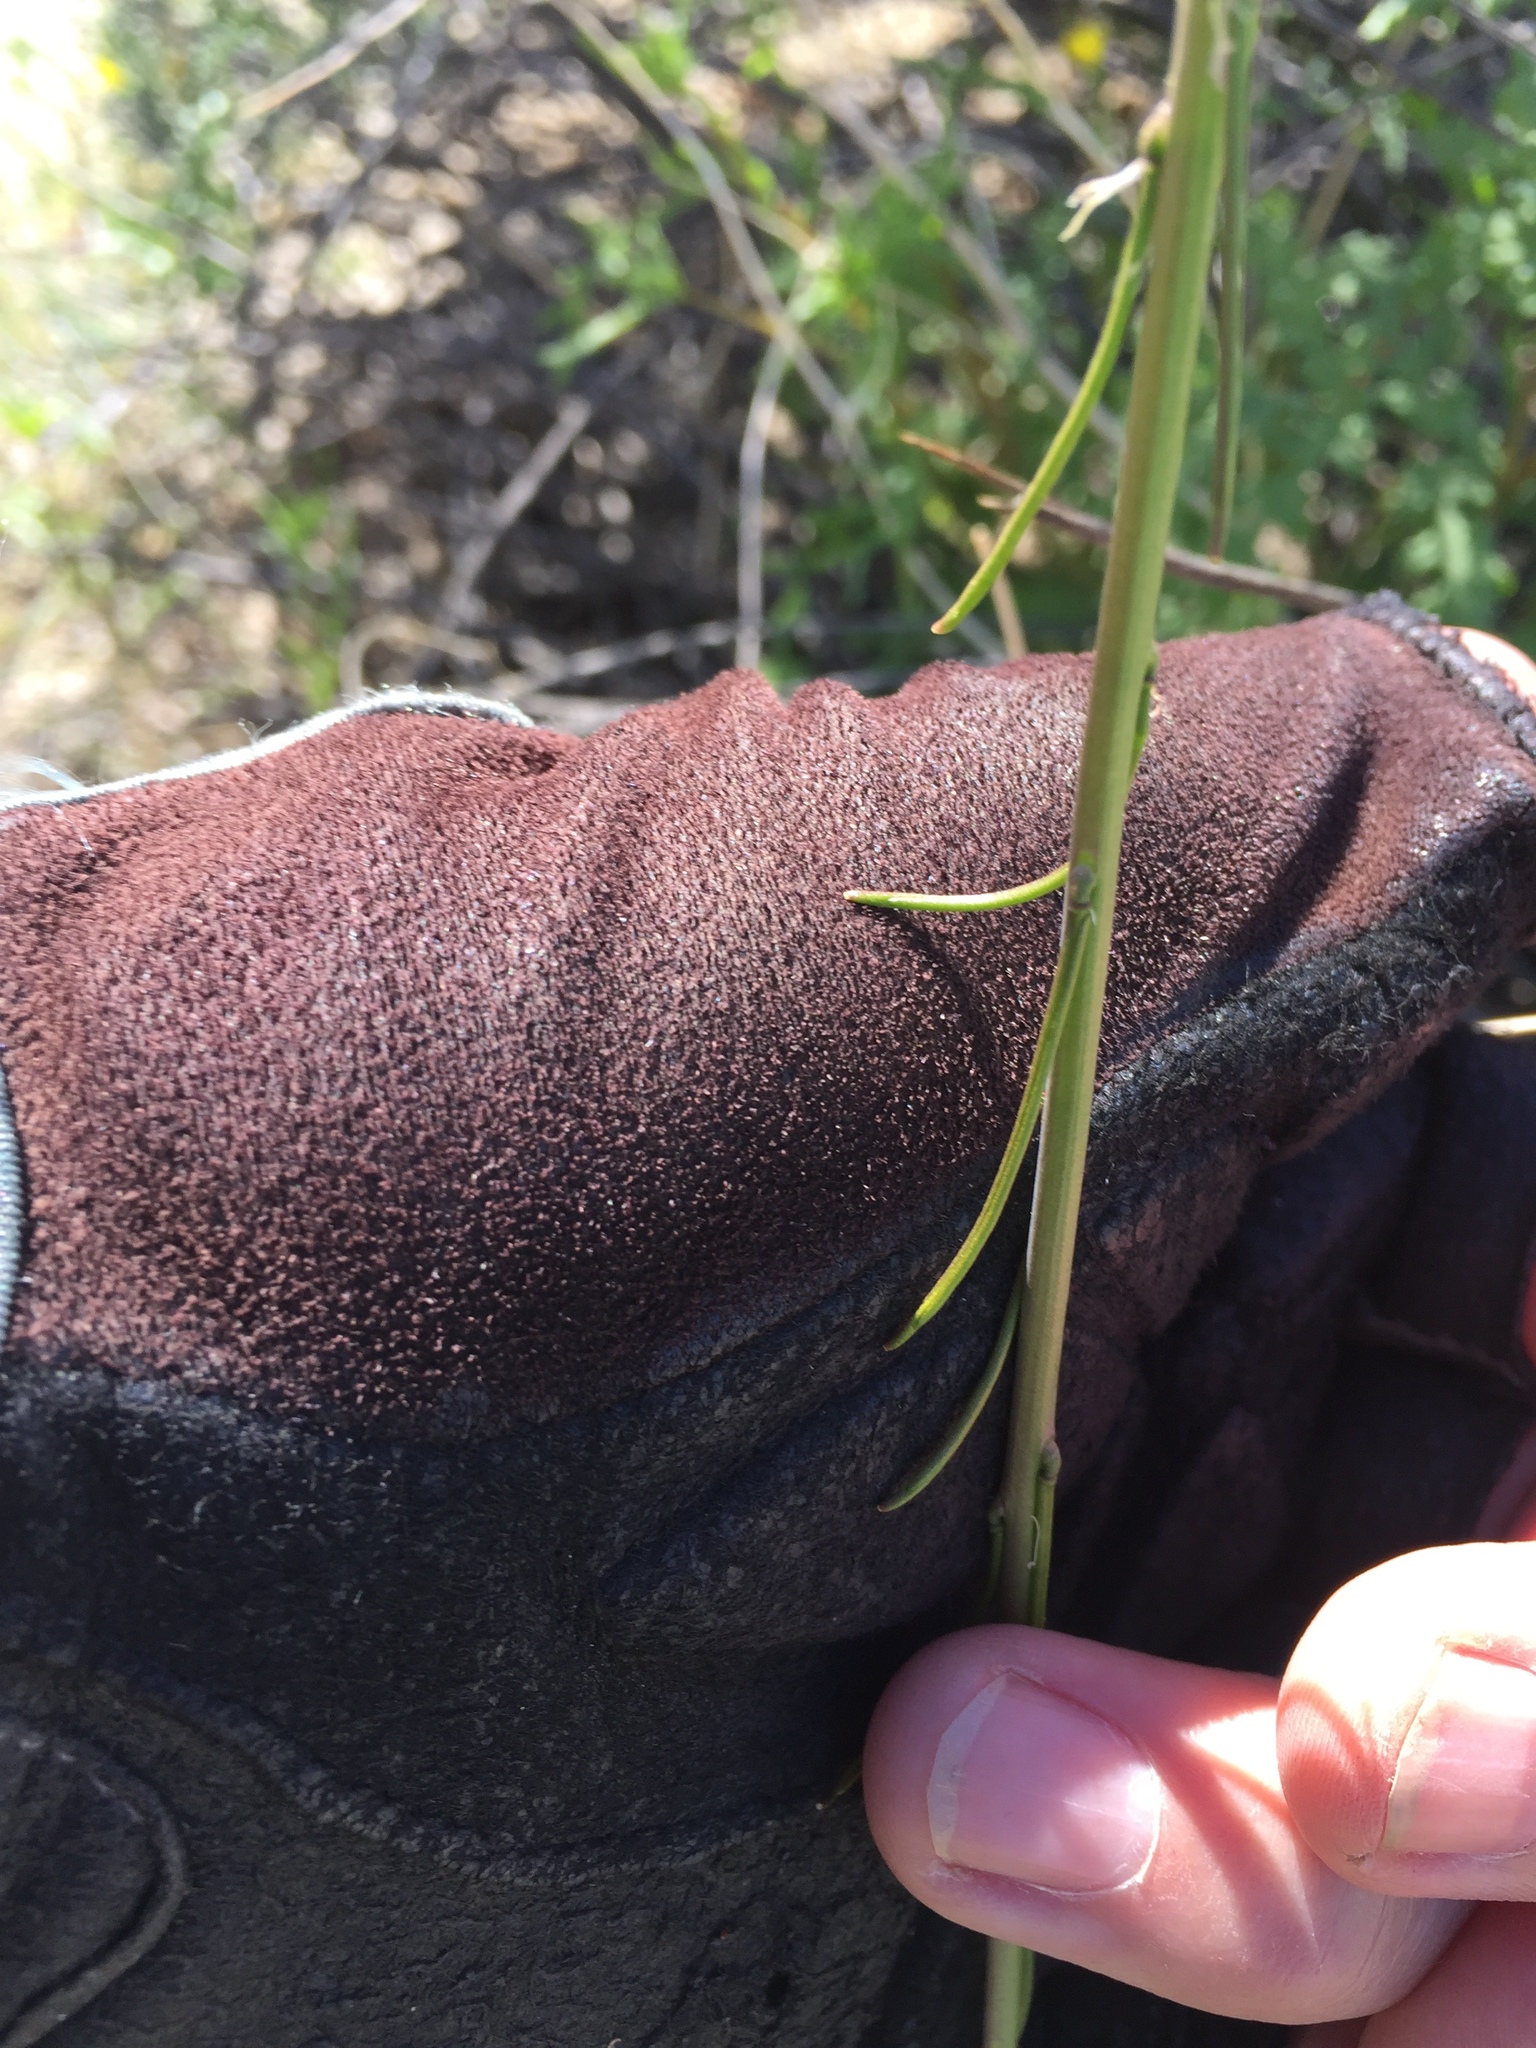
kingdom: Plantae
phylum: Tracheophyta
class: Magnoliopsida
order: Brassicales
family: Brassicaceae
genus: Streptanthus
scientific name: Streptanthus lasiophyllus
